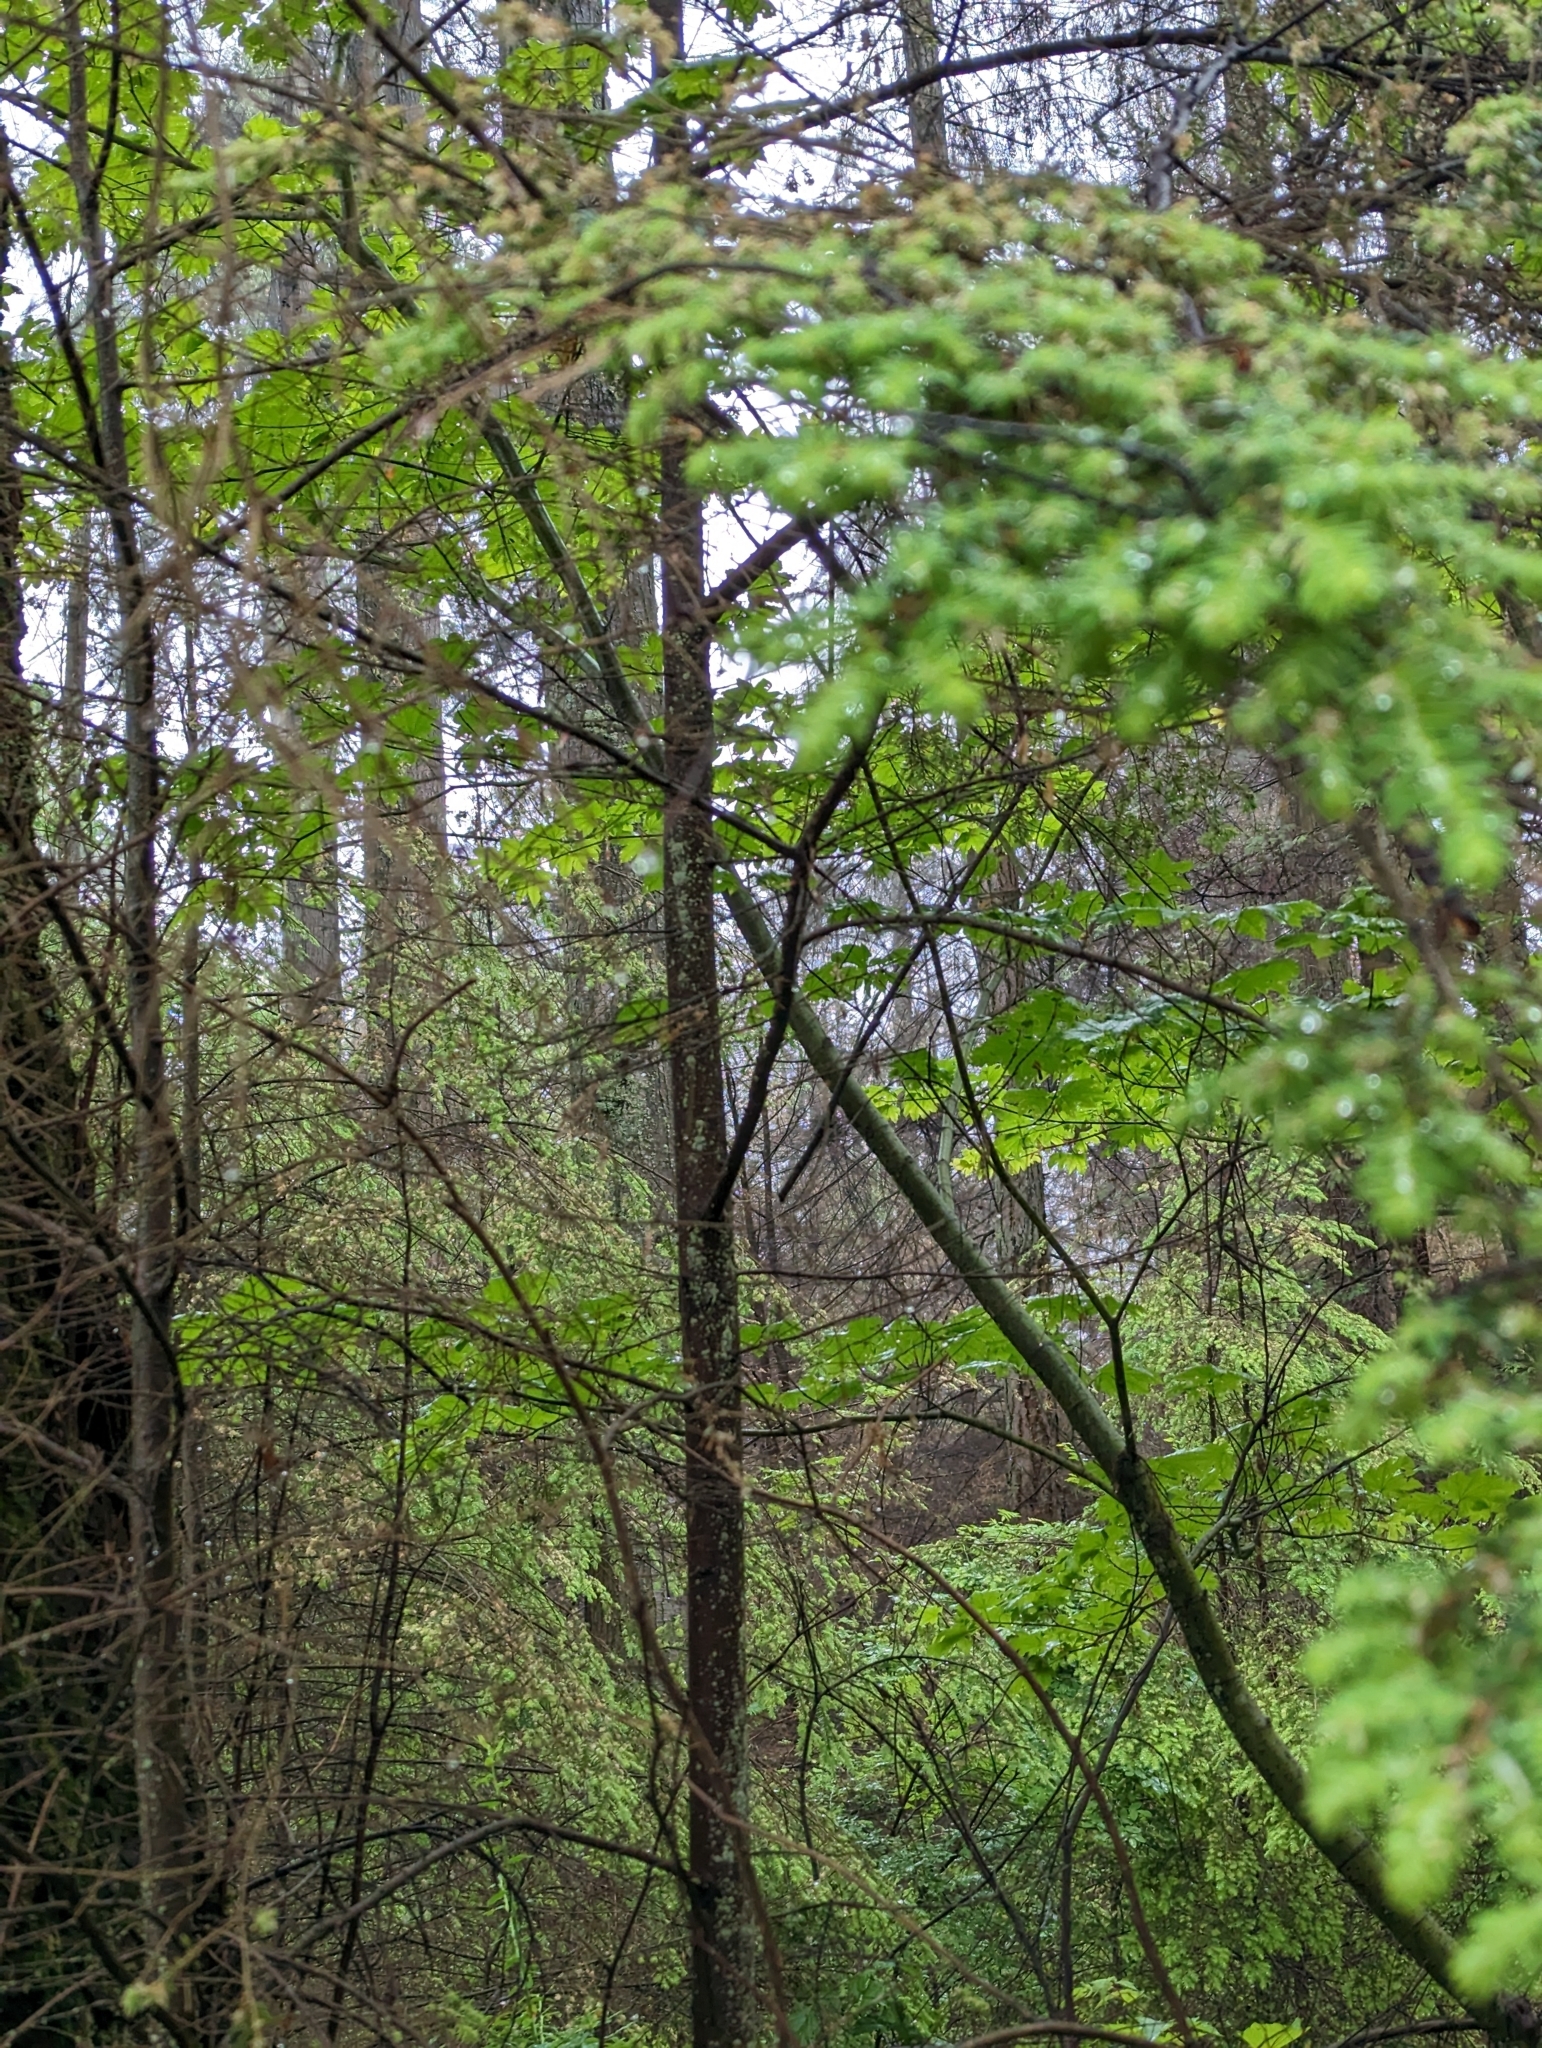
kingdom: Plantae
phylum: Tracheophyta
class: Pinopsida
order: Pinales
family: Pinaceae
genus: Tsuga
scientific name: Tsuga heterophylla
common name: Western hemlock
